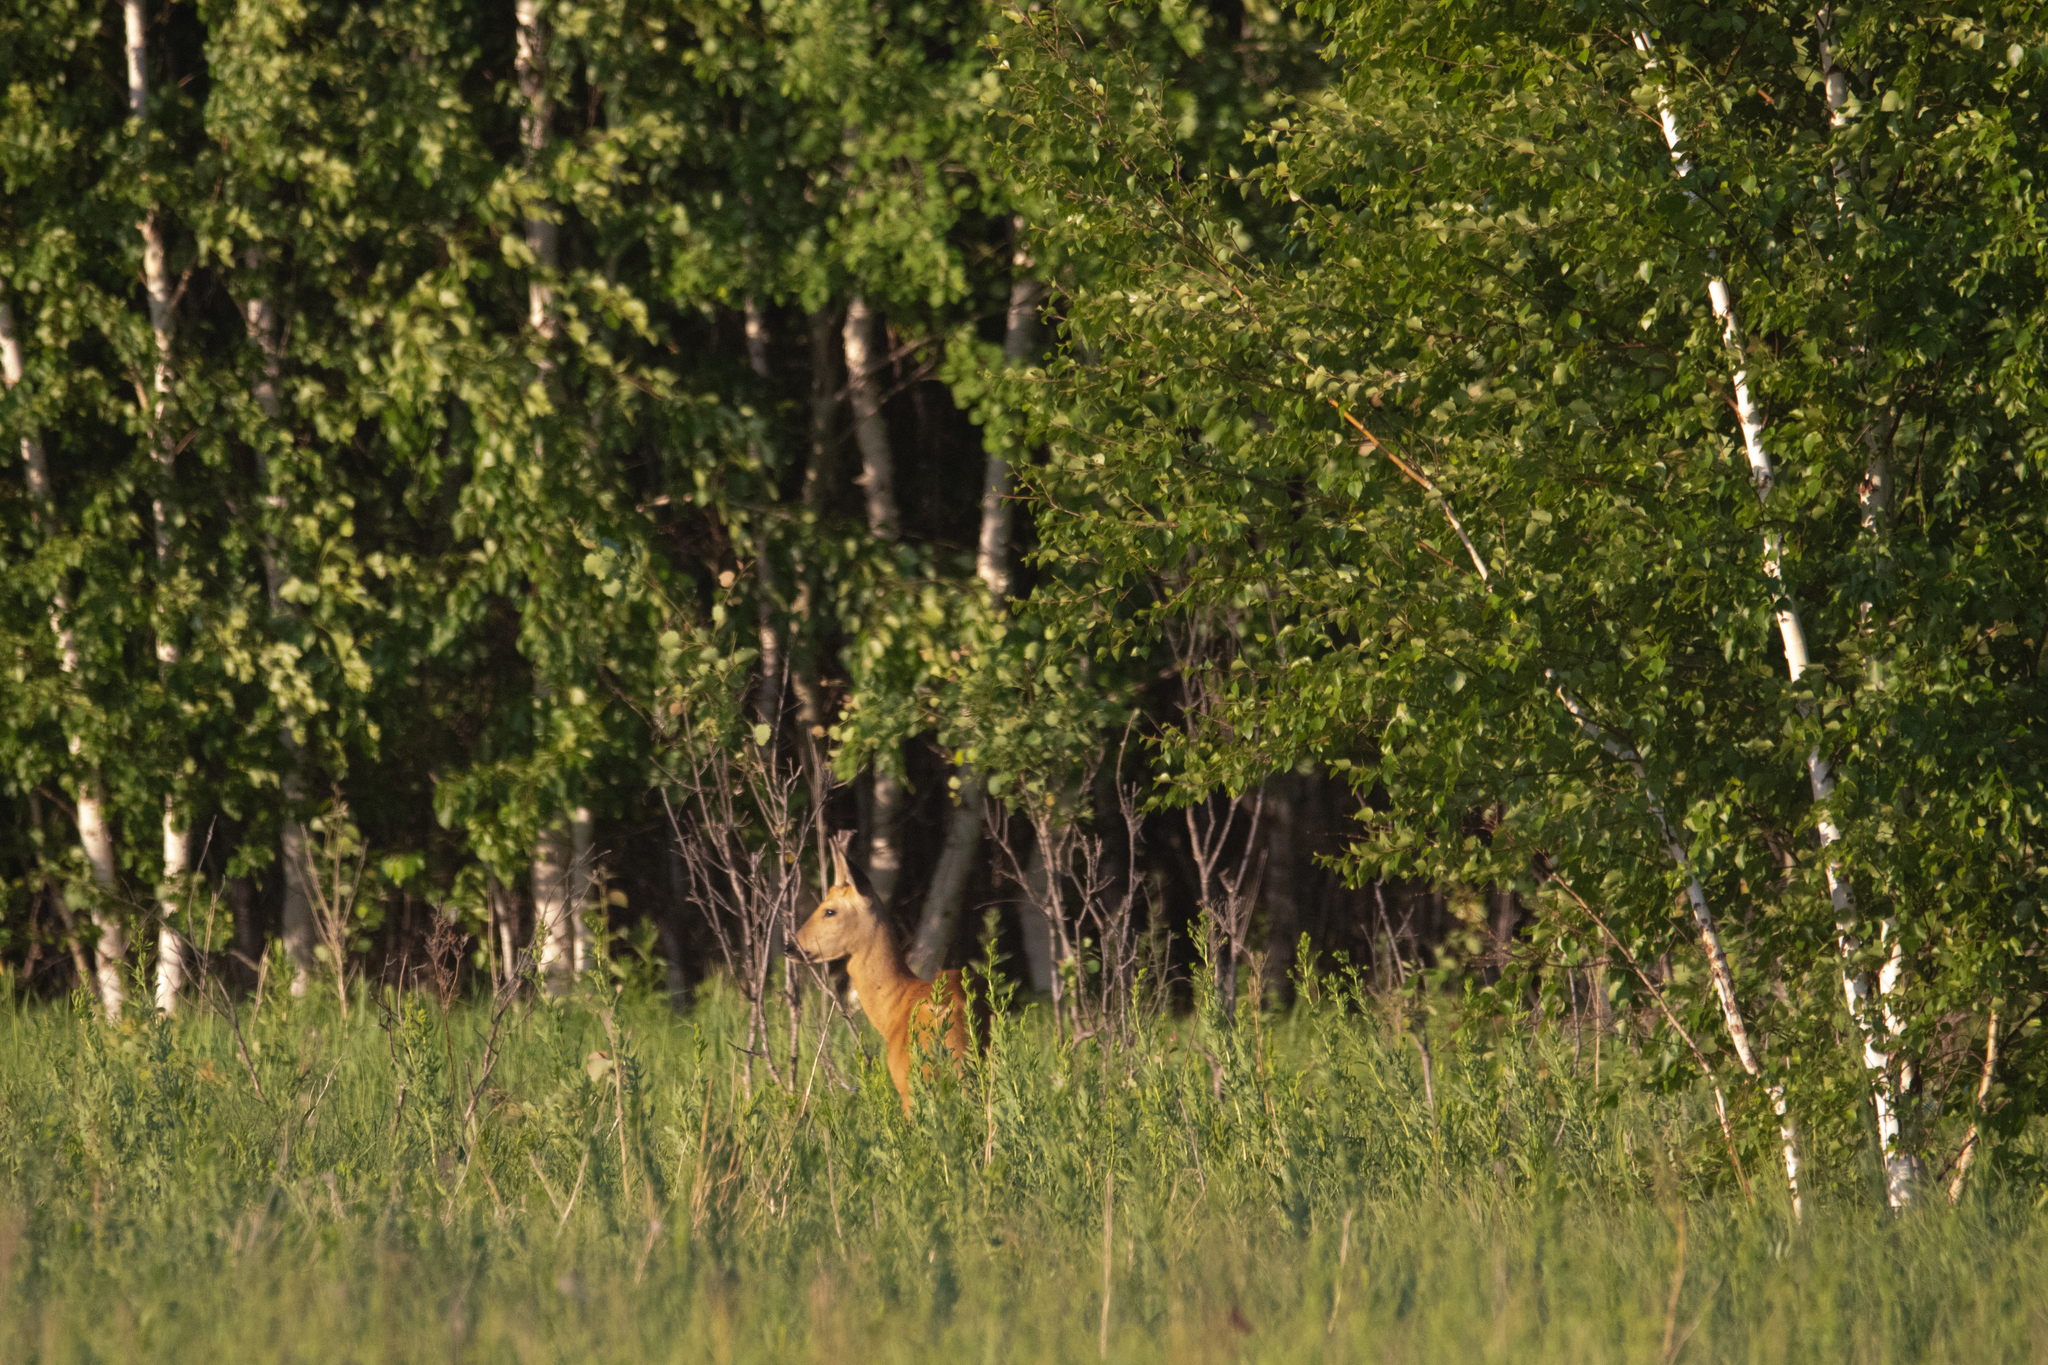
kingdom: Animalia
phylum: Chordata
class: Mammalia
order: Artiodactyla
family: Cervidae
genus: Capreolus
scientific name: Capreolus pygargus
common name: Siberian roe
